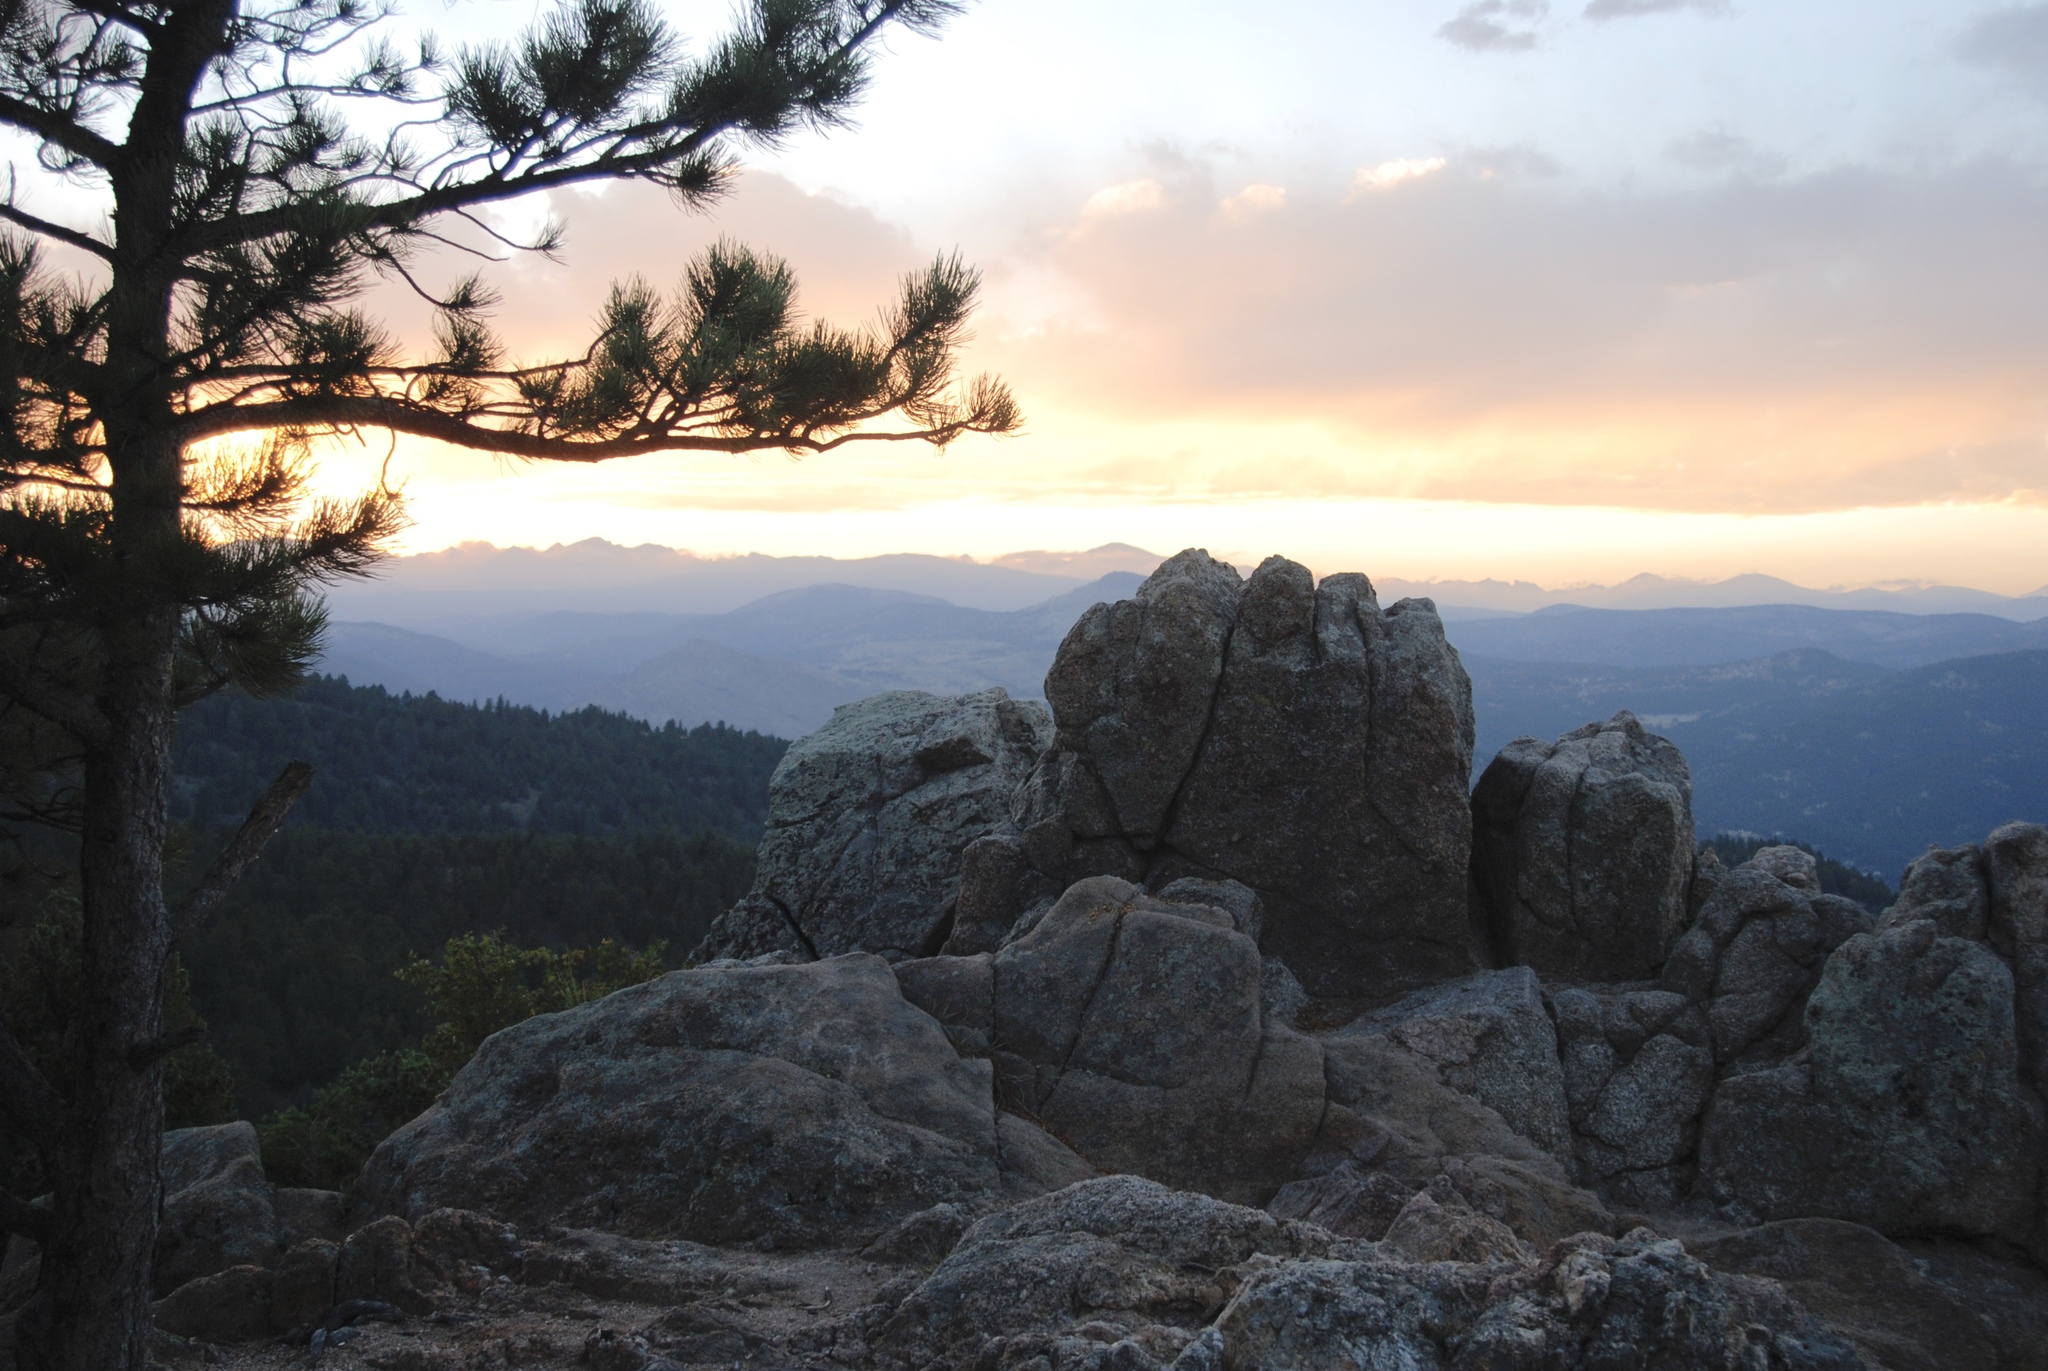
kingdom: Plantae
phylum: Tracheophyta
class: Pinopsida
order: Pinales
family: Pinaceae
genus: Pinus
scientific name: Pinus ponderosa
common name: Western yellow-pine
